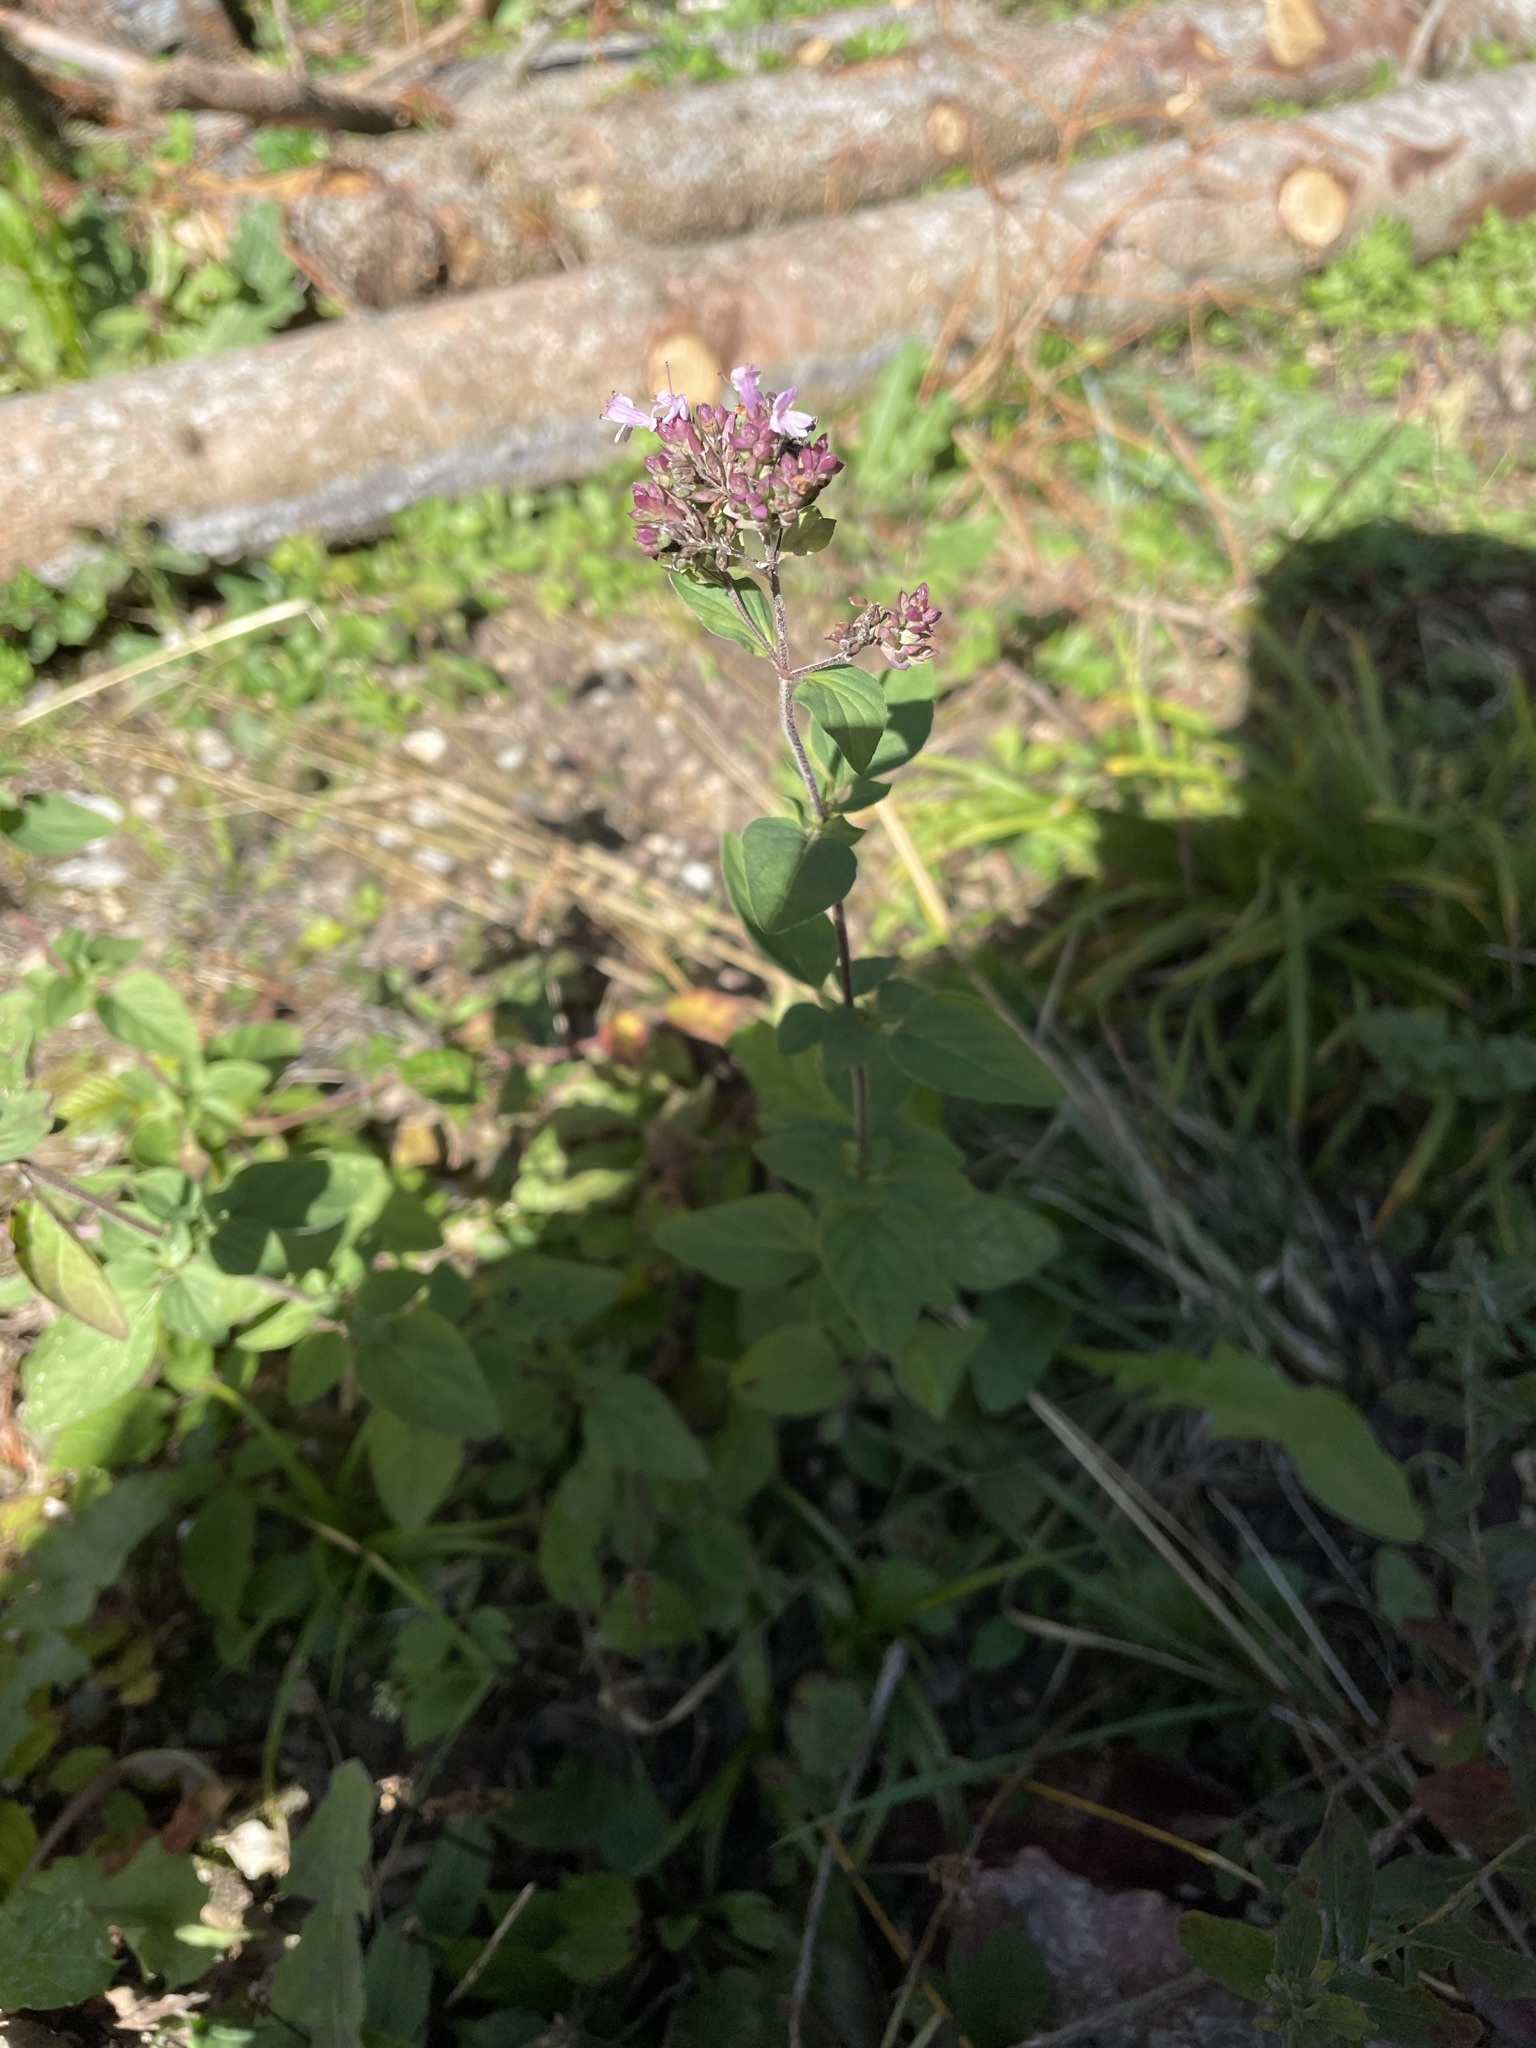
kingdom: Plantae
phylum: Tracheophyta
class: Magnoliopsida
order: Lamiales
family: Lamiaceae
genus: Origanum
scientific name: Origanum vulgare
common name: Wild marjoram
